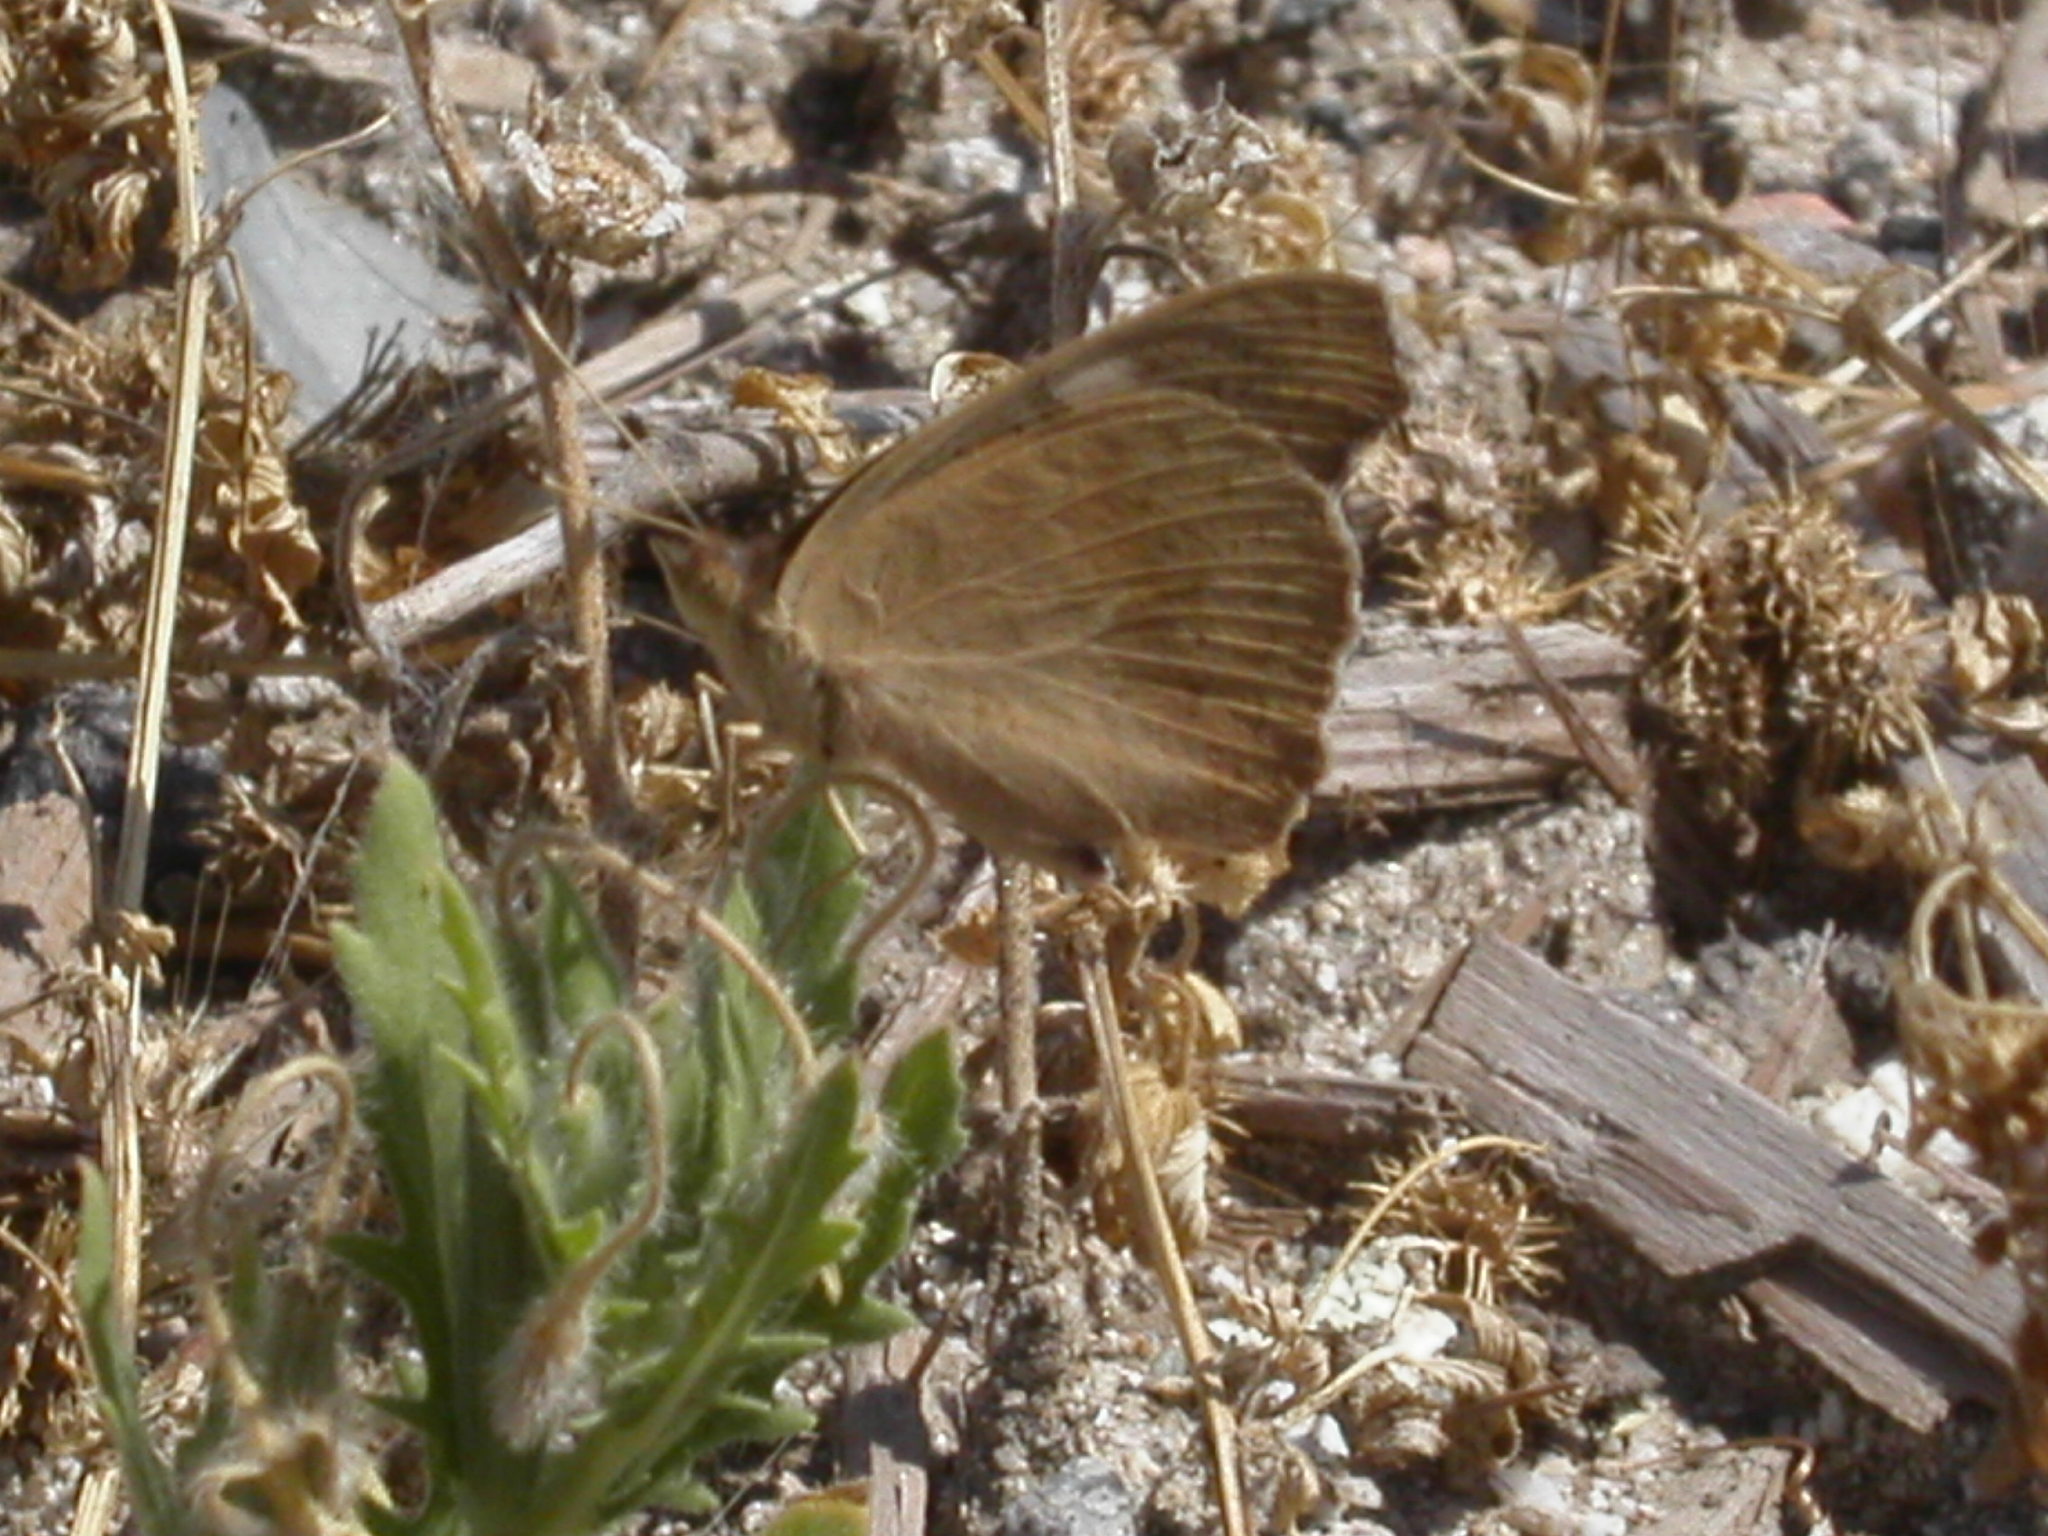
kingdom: Animalia
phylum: Arthropoda
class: Insecta
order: Lepidoptera
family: Nymphalidae
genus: Junonia
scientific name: Junonia grisea
